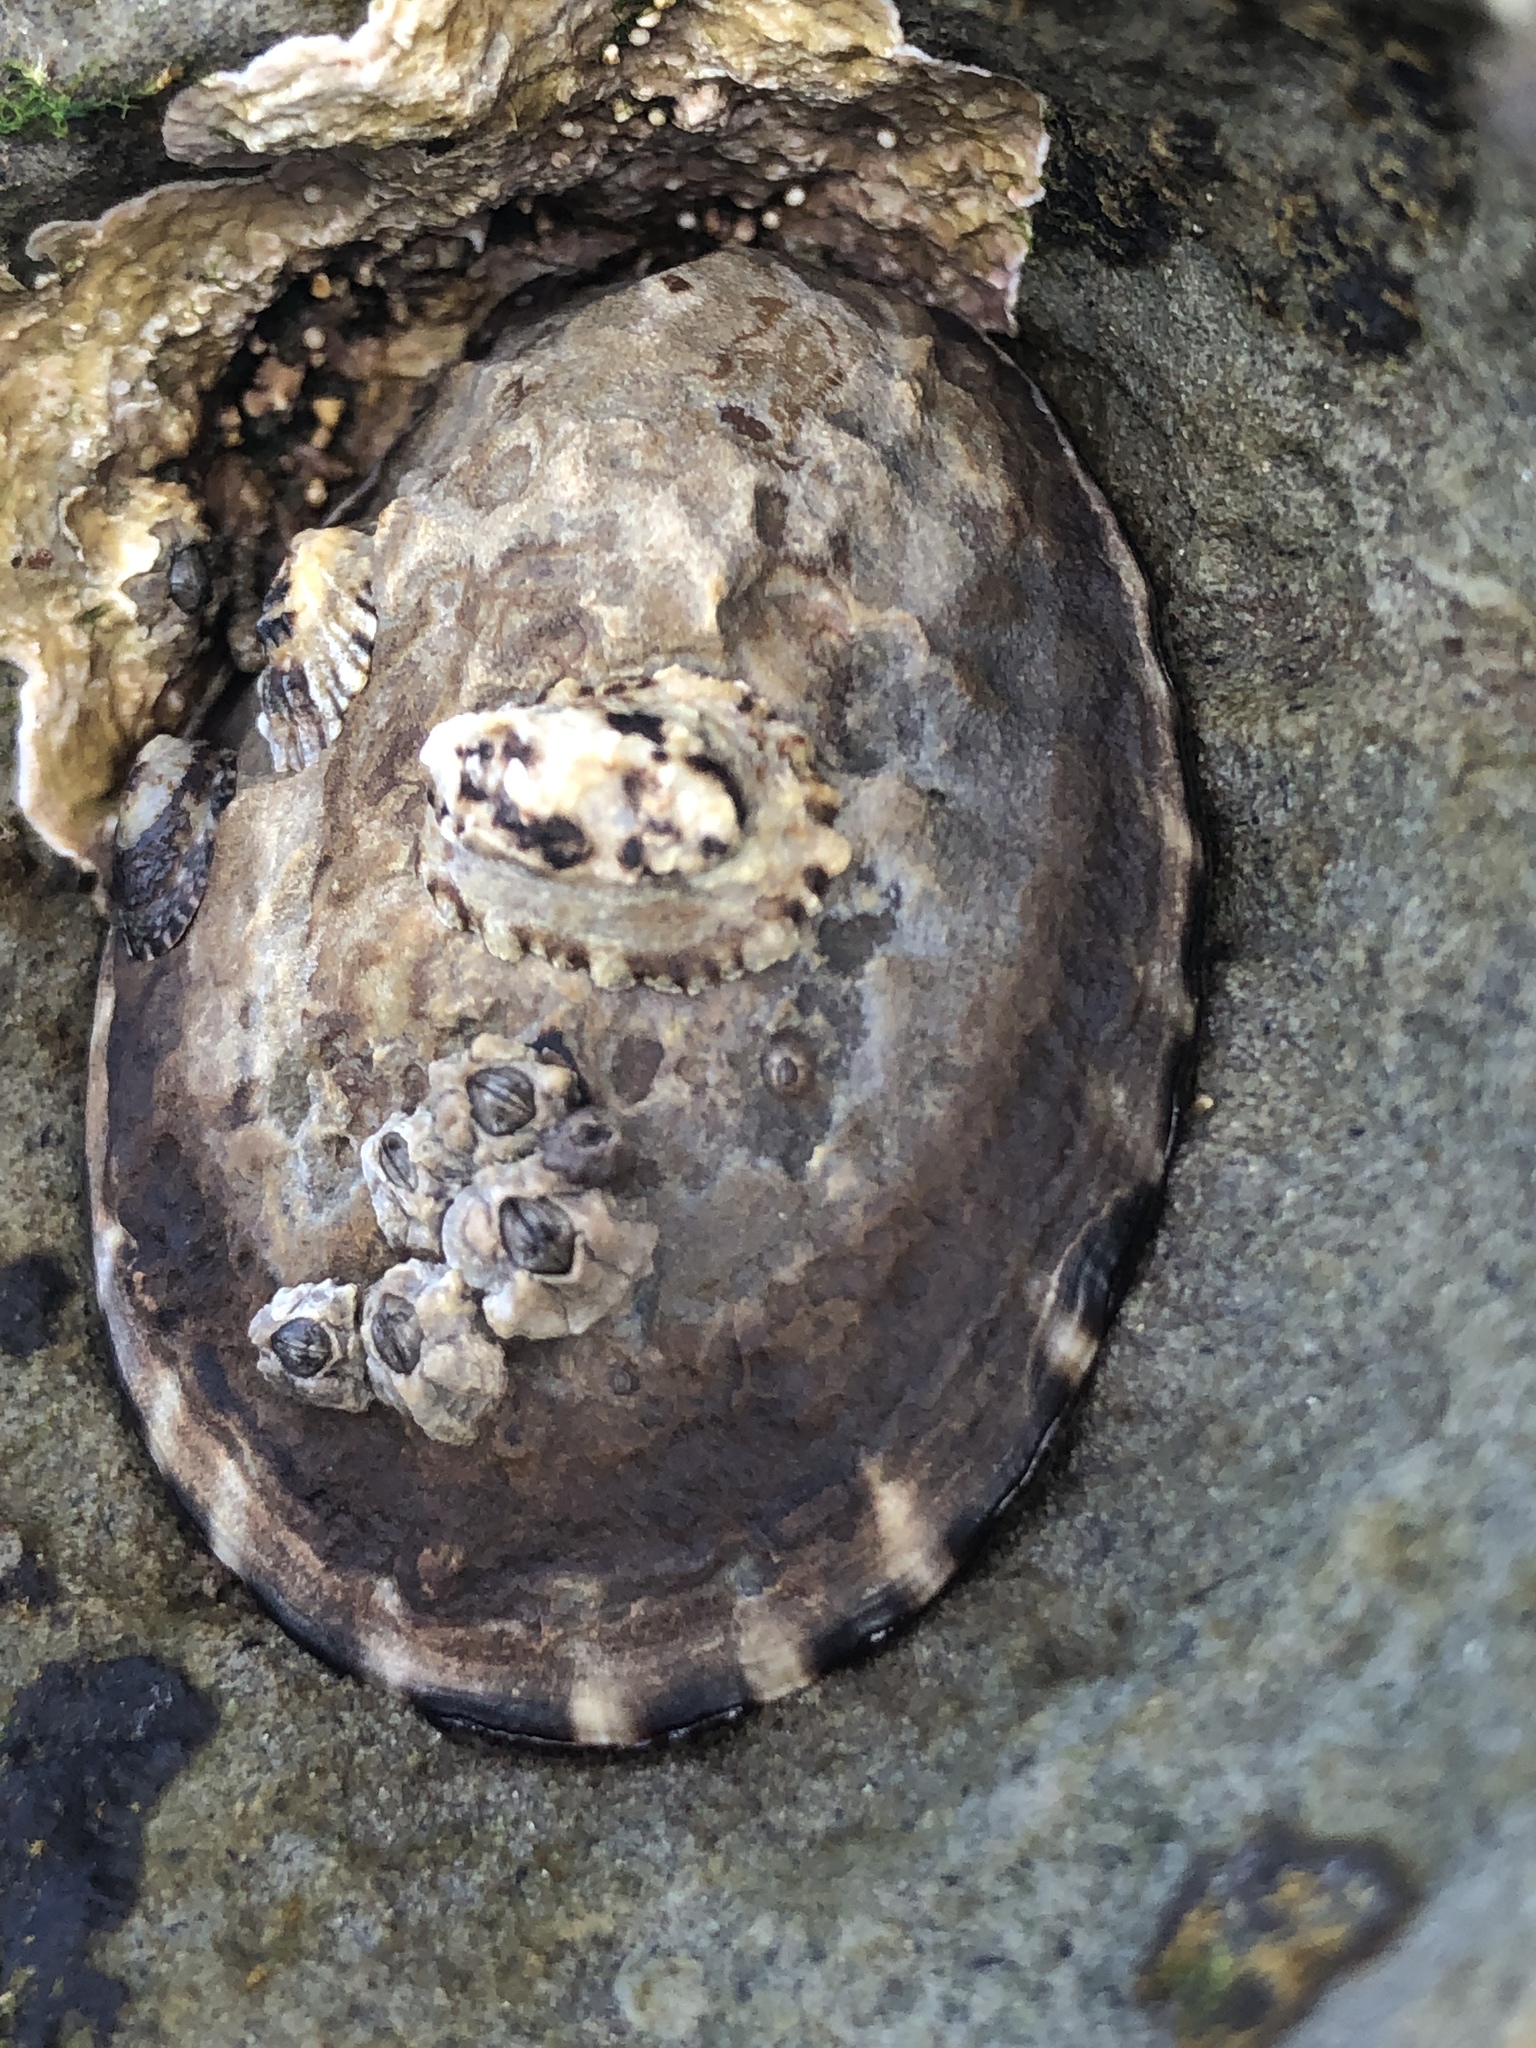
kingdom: Animalia
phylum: Mollusca
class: Gastropoda
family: Lottiidae
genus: Lottia
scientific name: Lottia gigantea
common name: Owl limpet
